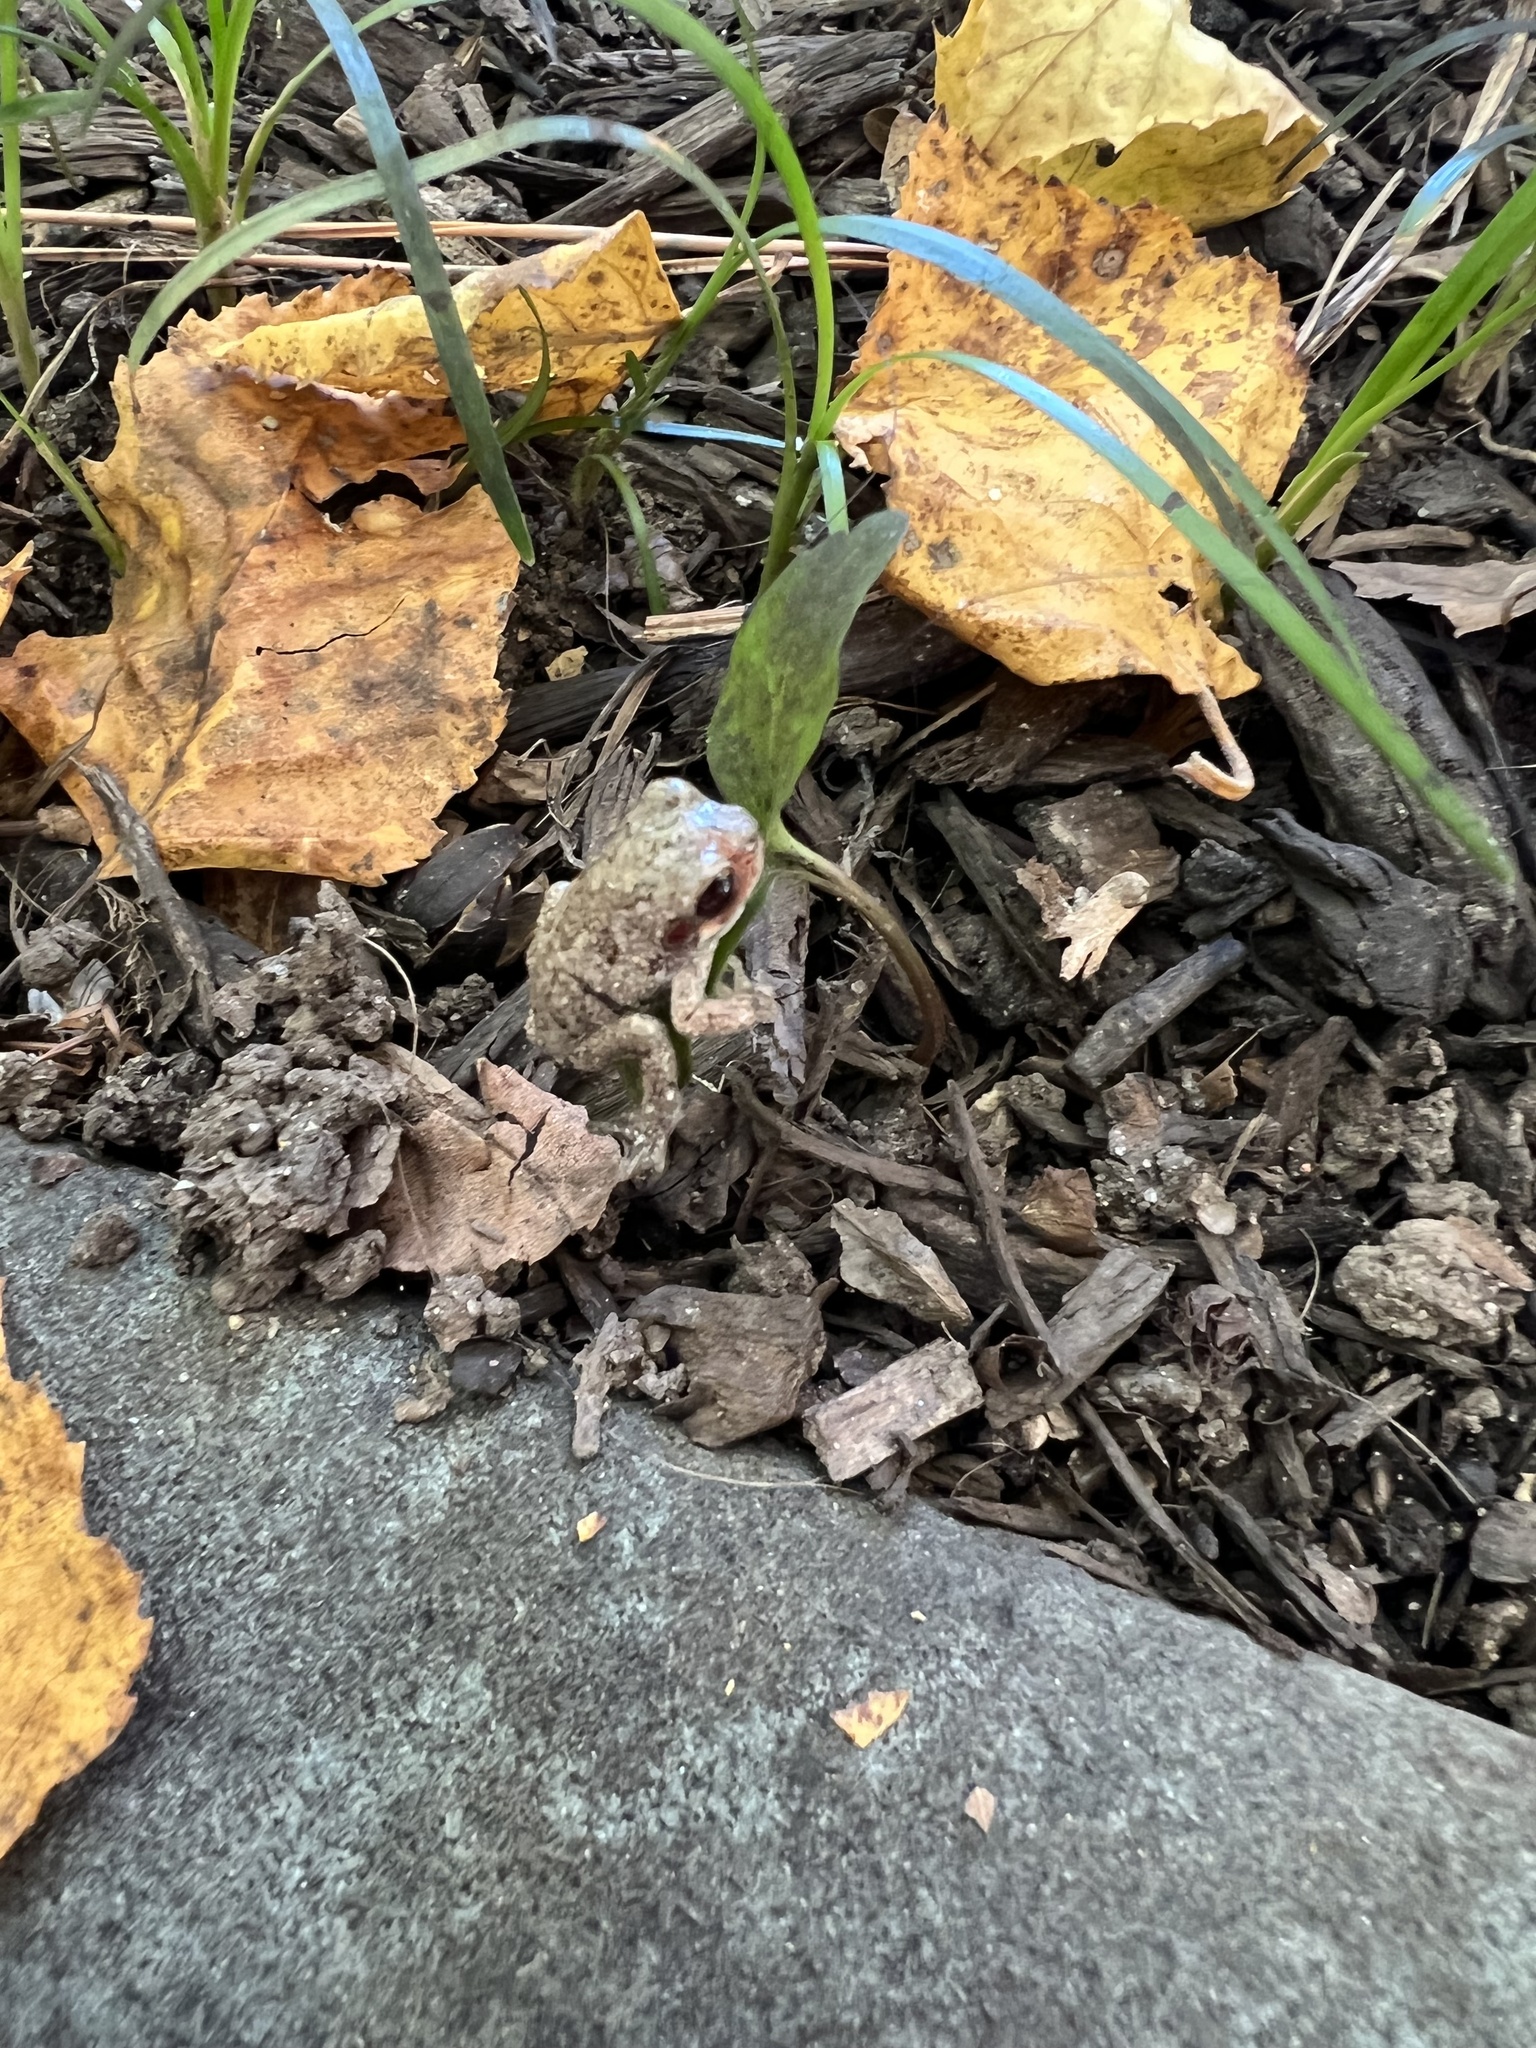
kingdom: Animalia
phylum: Chordata
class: Amphibia
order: Anura
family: Hylidae
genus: Hyla
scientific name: Hyla
